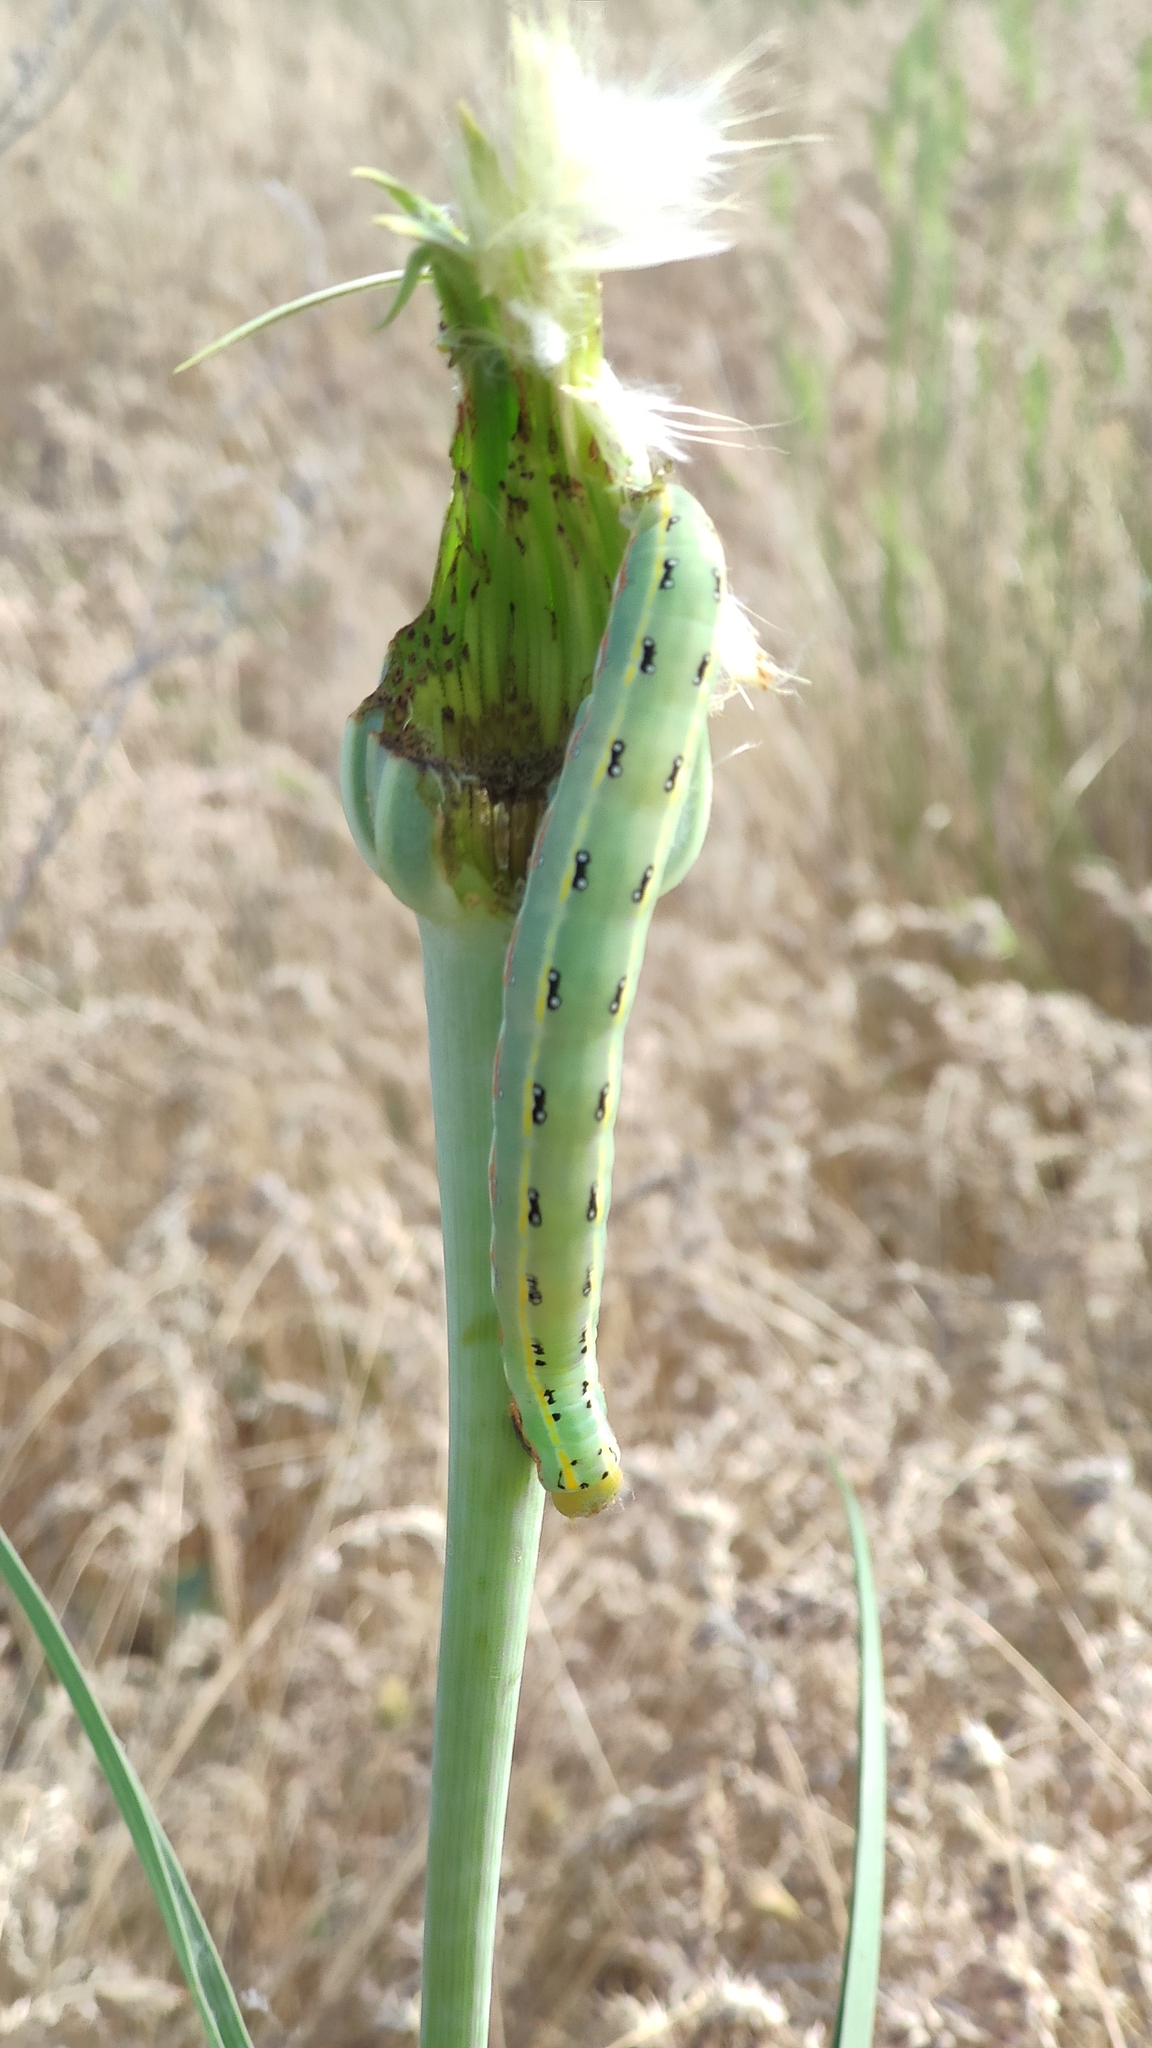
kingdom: Animalia
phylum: Arthropoda
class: Insecta
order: Lepidoptera
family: Noctuidae
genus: Xylena
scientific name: Xylena exsoleta
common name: Sword-grass
